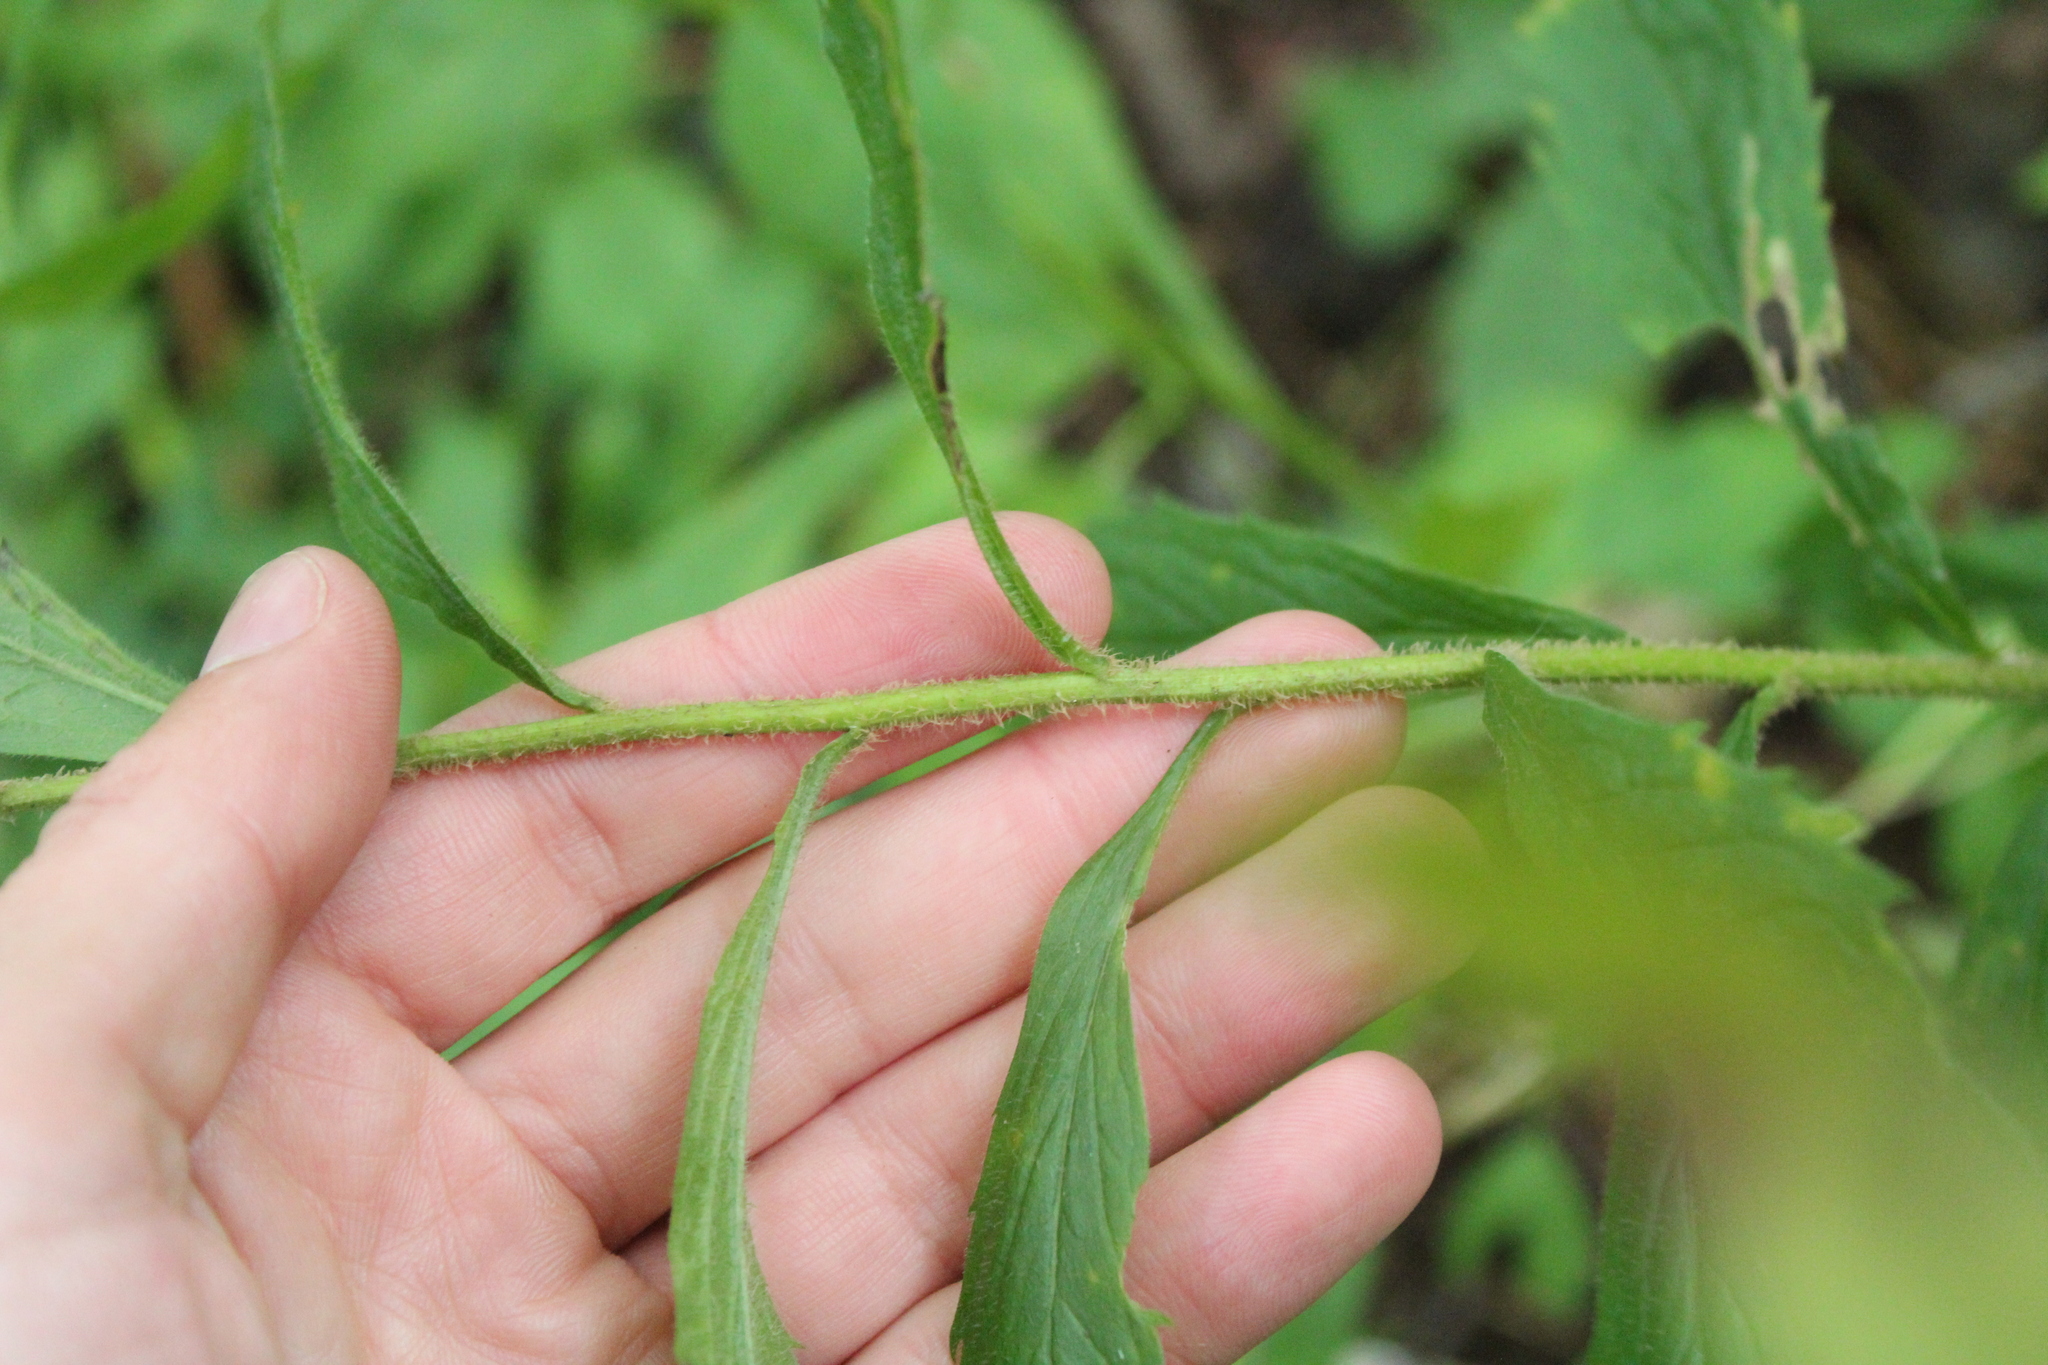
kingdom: Plantae
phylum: Tracheophyta
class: Magnoliopsida
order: Asterales
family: Asteraceae
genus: Solidago
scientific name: Solidago rugosa
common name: Rough-stemmed goldenrod
